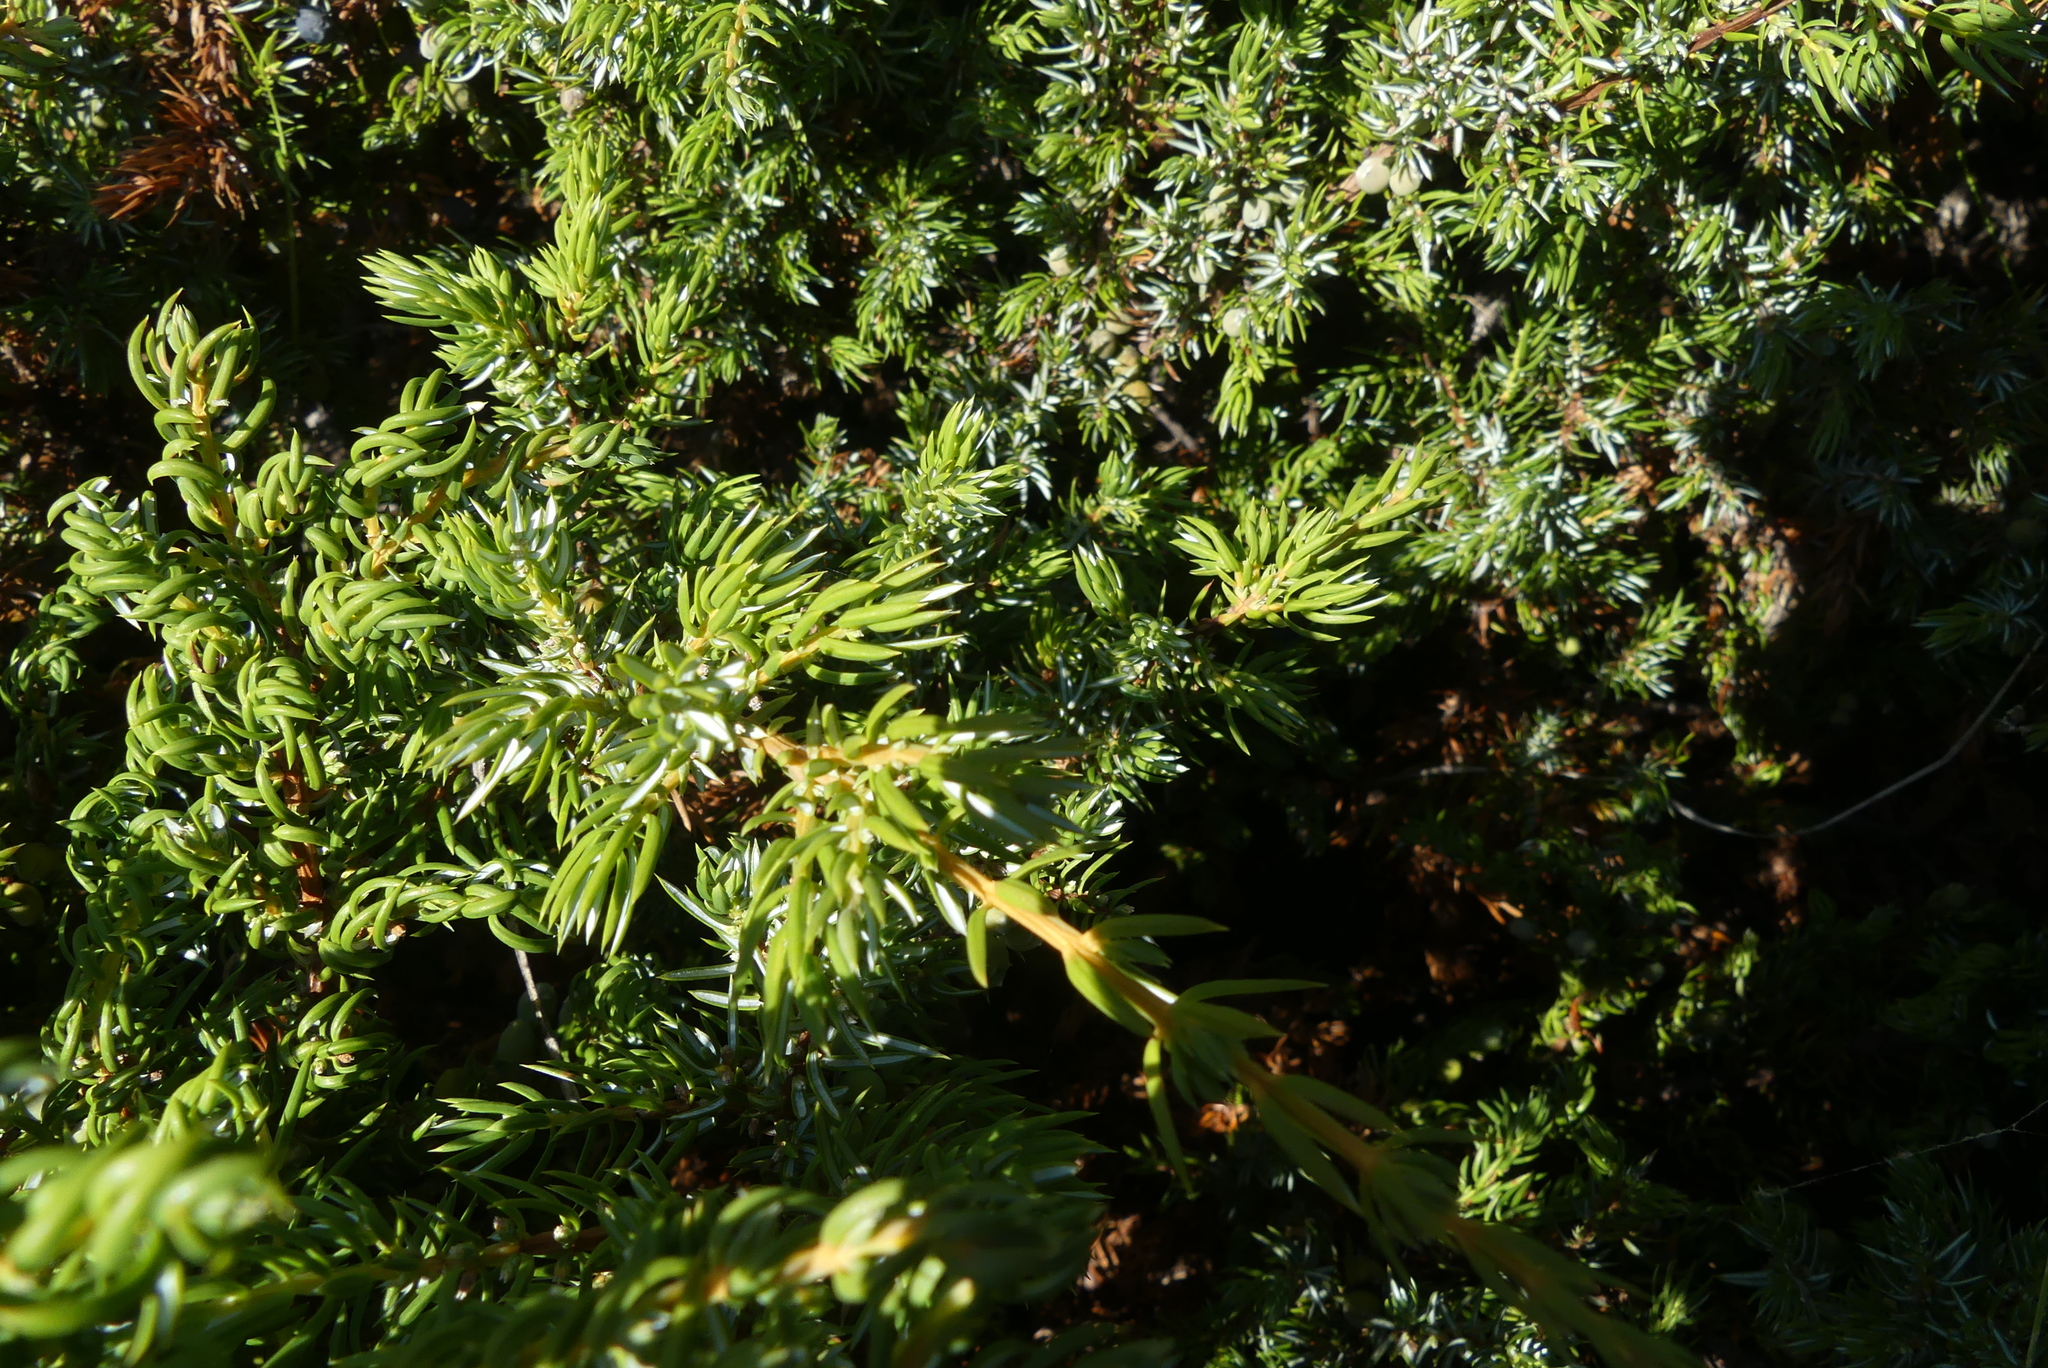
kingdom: Plantae
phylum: Tracheophyta
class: Pinopsida
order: Pinales
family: Cupressaceae
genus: Juniperus
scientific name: Juniperus communis
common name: Common juniper
